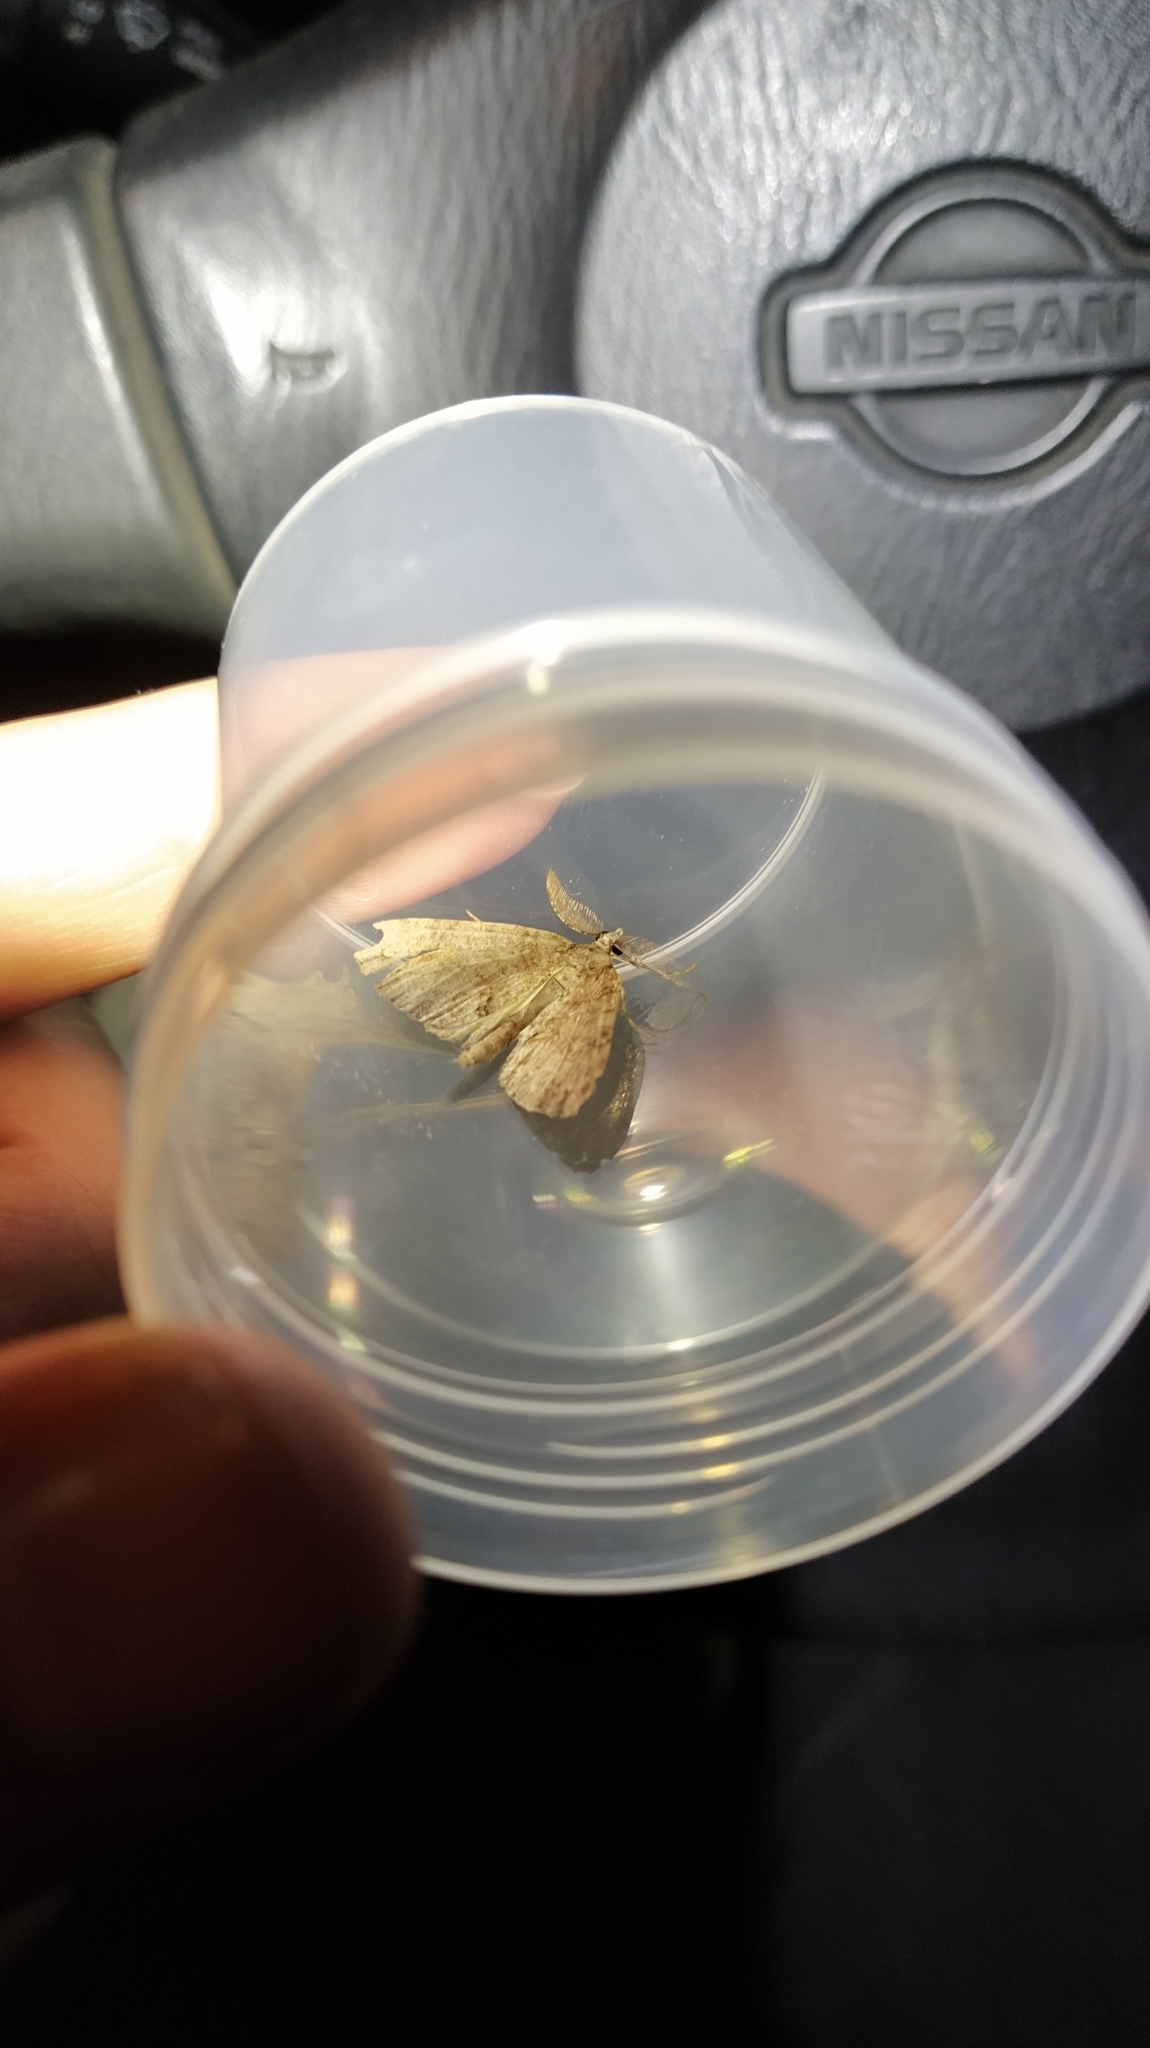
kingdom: Animalia
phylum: Arthropoda
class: Insecta
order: Lepidoptera
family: Geometridae
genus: Pseudocoremia
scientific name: Pseudocoremia suavis
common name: Common forest looper
